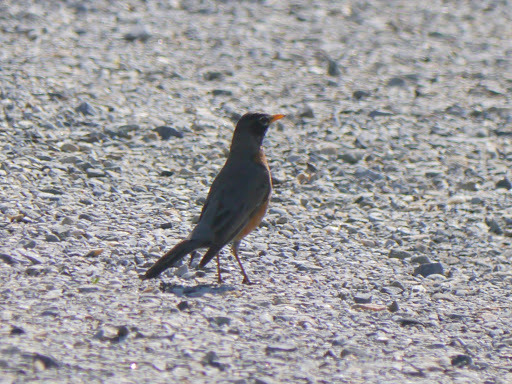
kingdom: Animalia
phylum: Chordata
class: Aves
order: Passeriformes
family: Turdidae
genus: Turdus
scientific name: Turdus migratorius
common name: American robin
